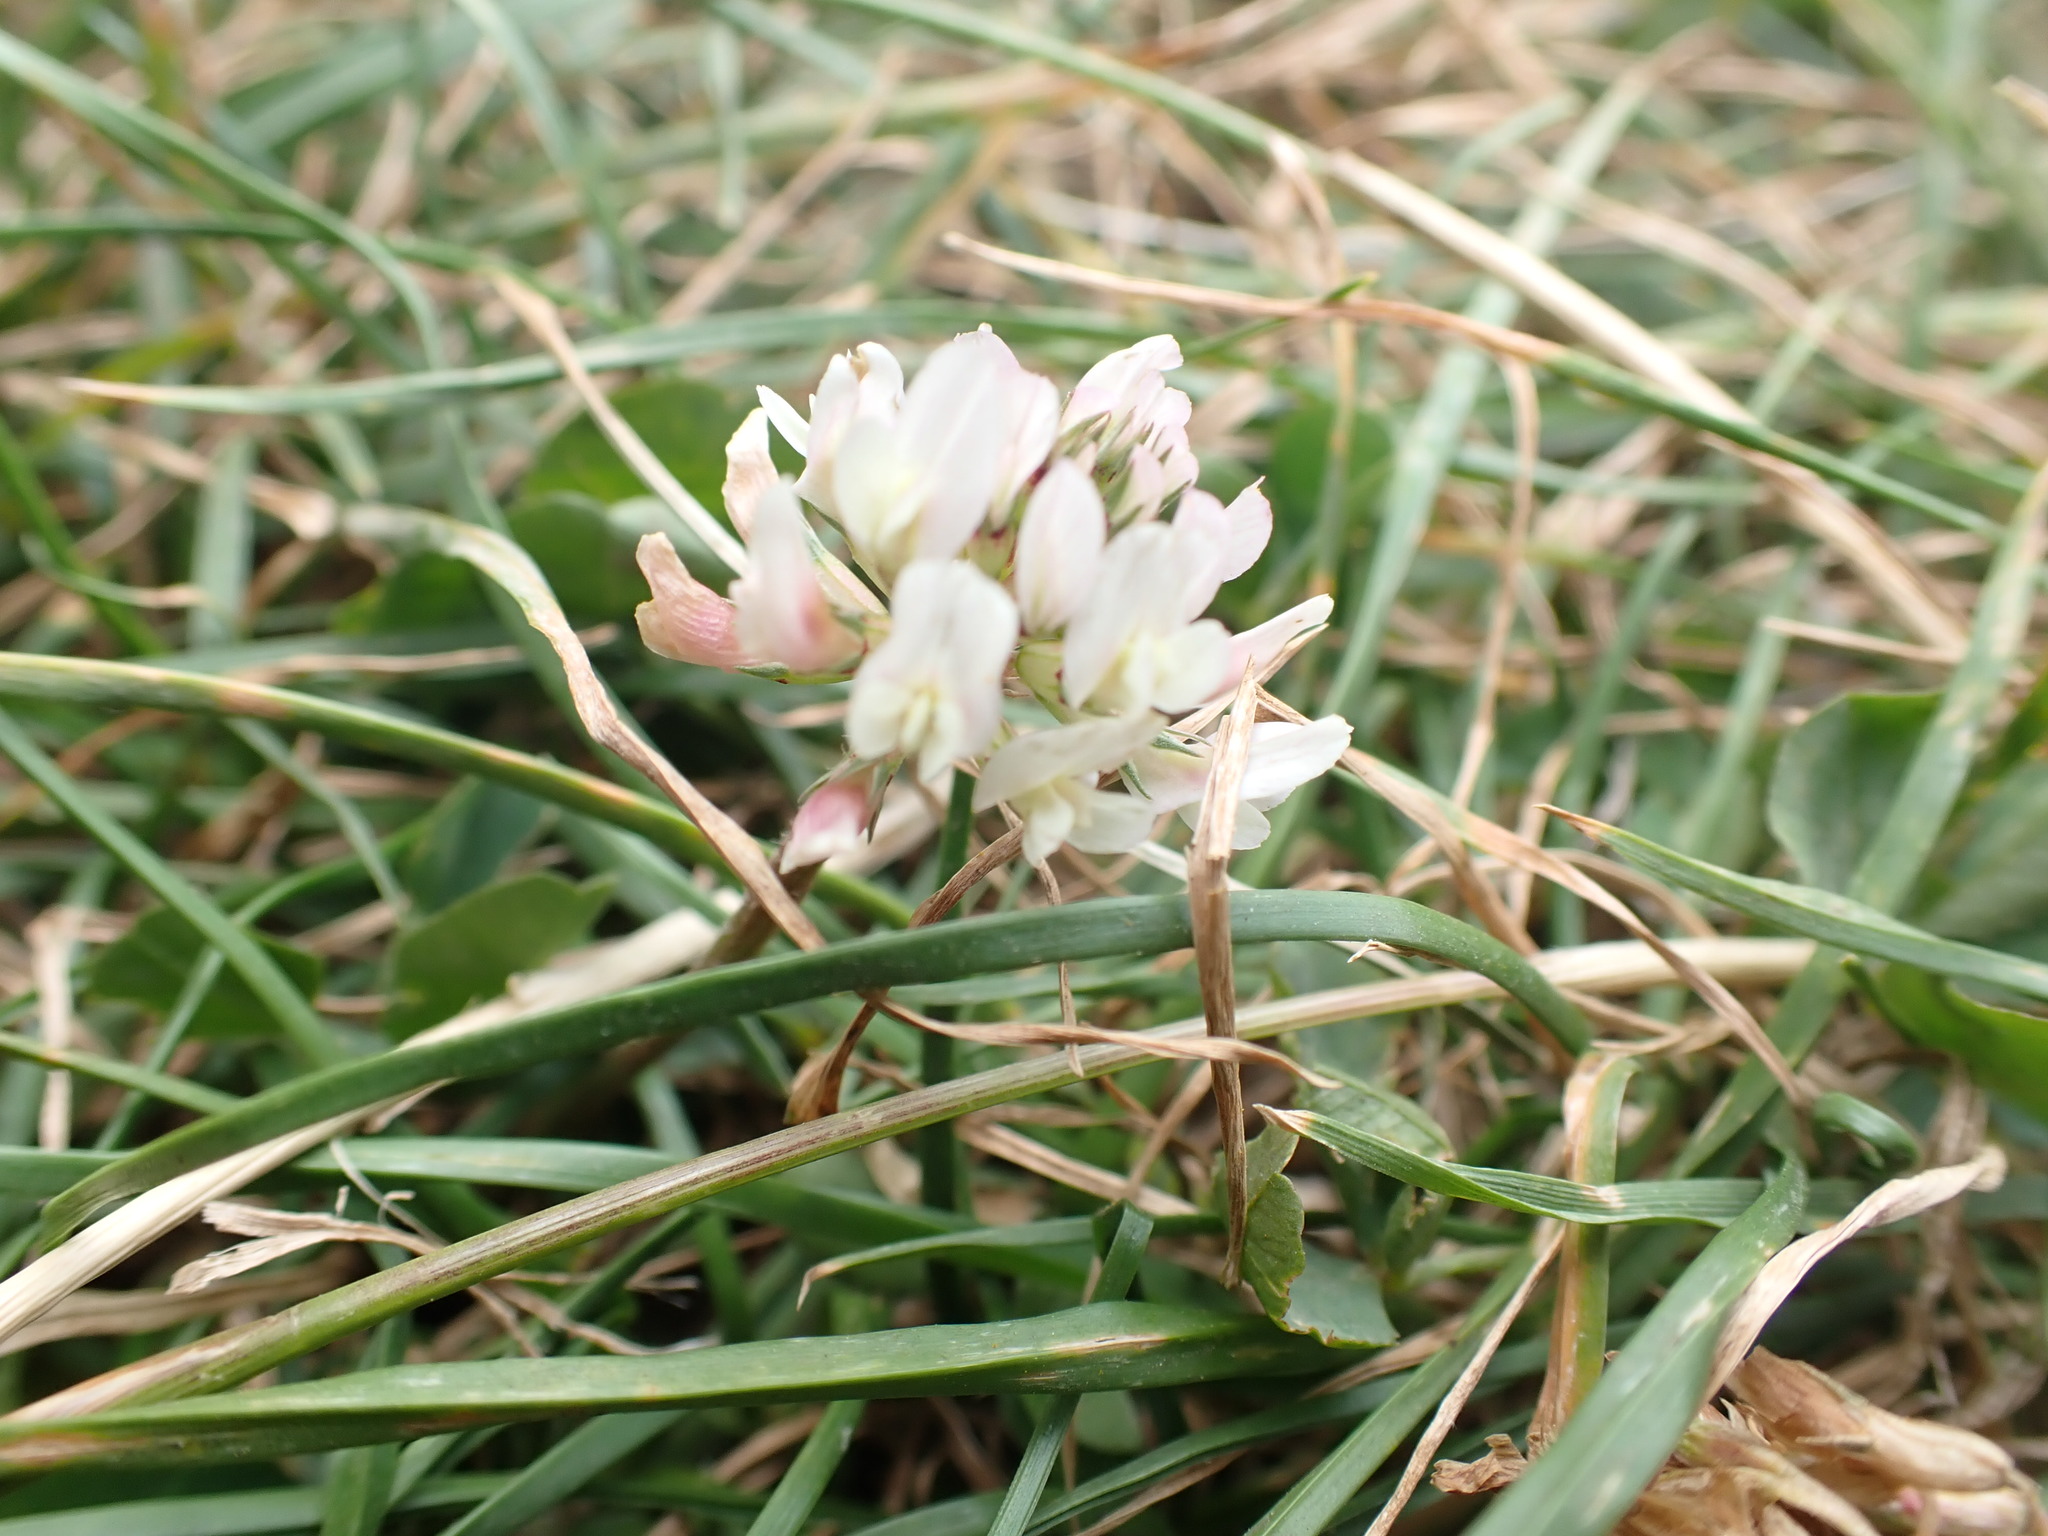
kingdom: Plantae
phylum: Tracheophyta
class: Magnoliopsida
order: Fabales
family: Fabaceae
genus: Trifolium
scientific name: Trifolium repens
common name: White clover
